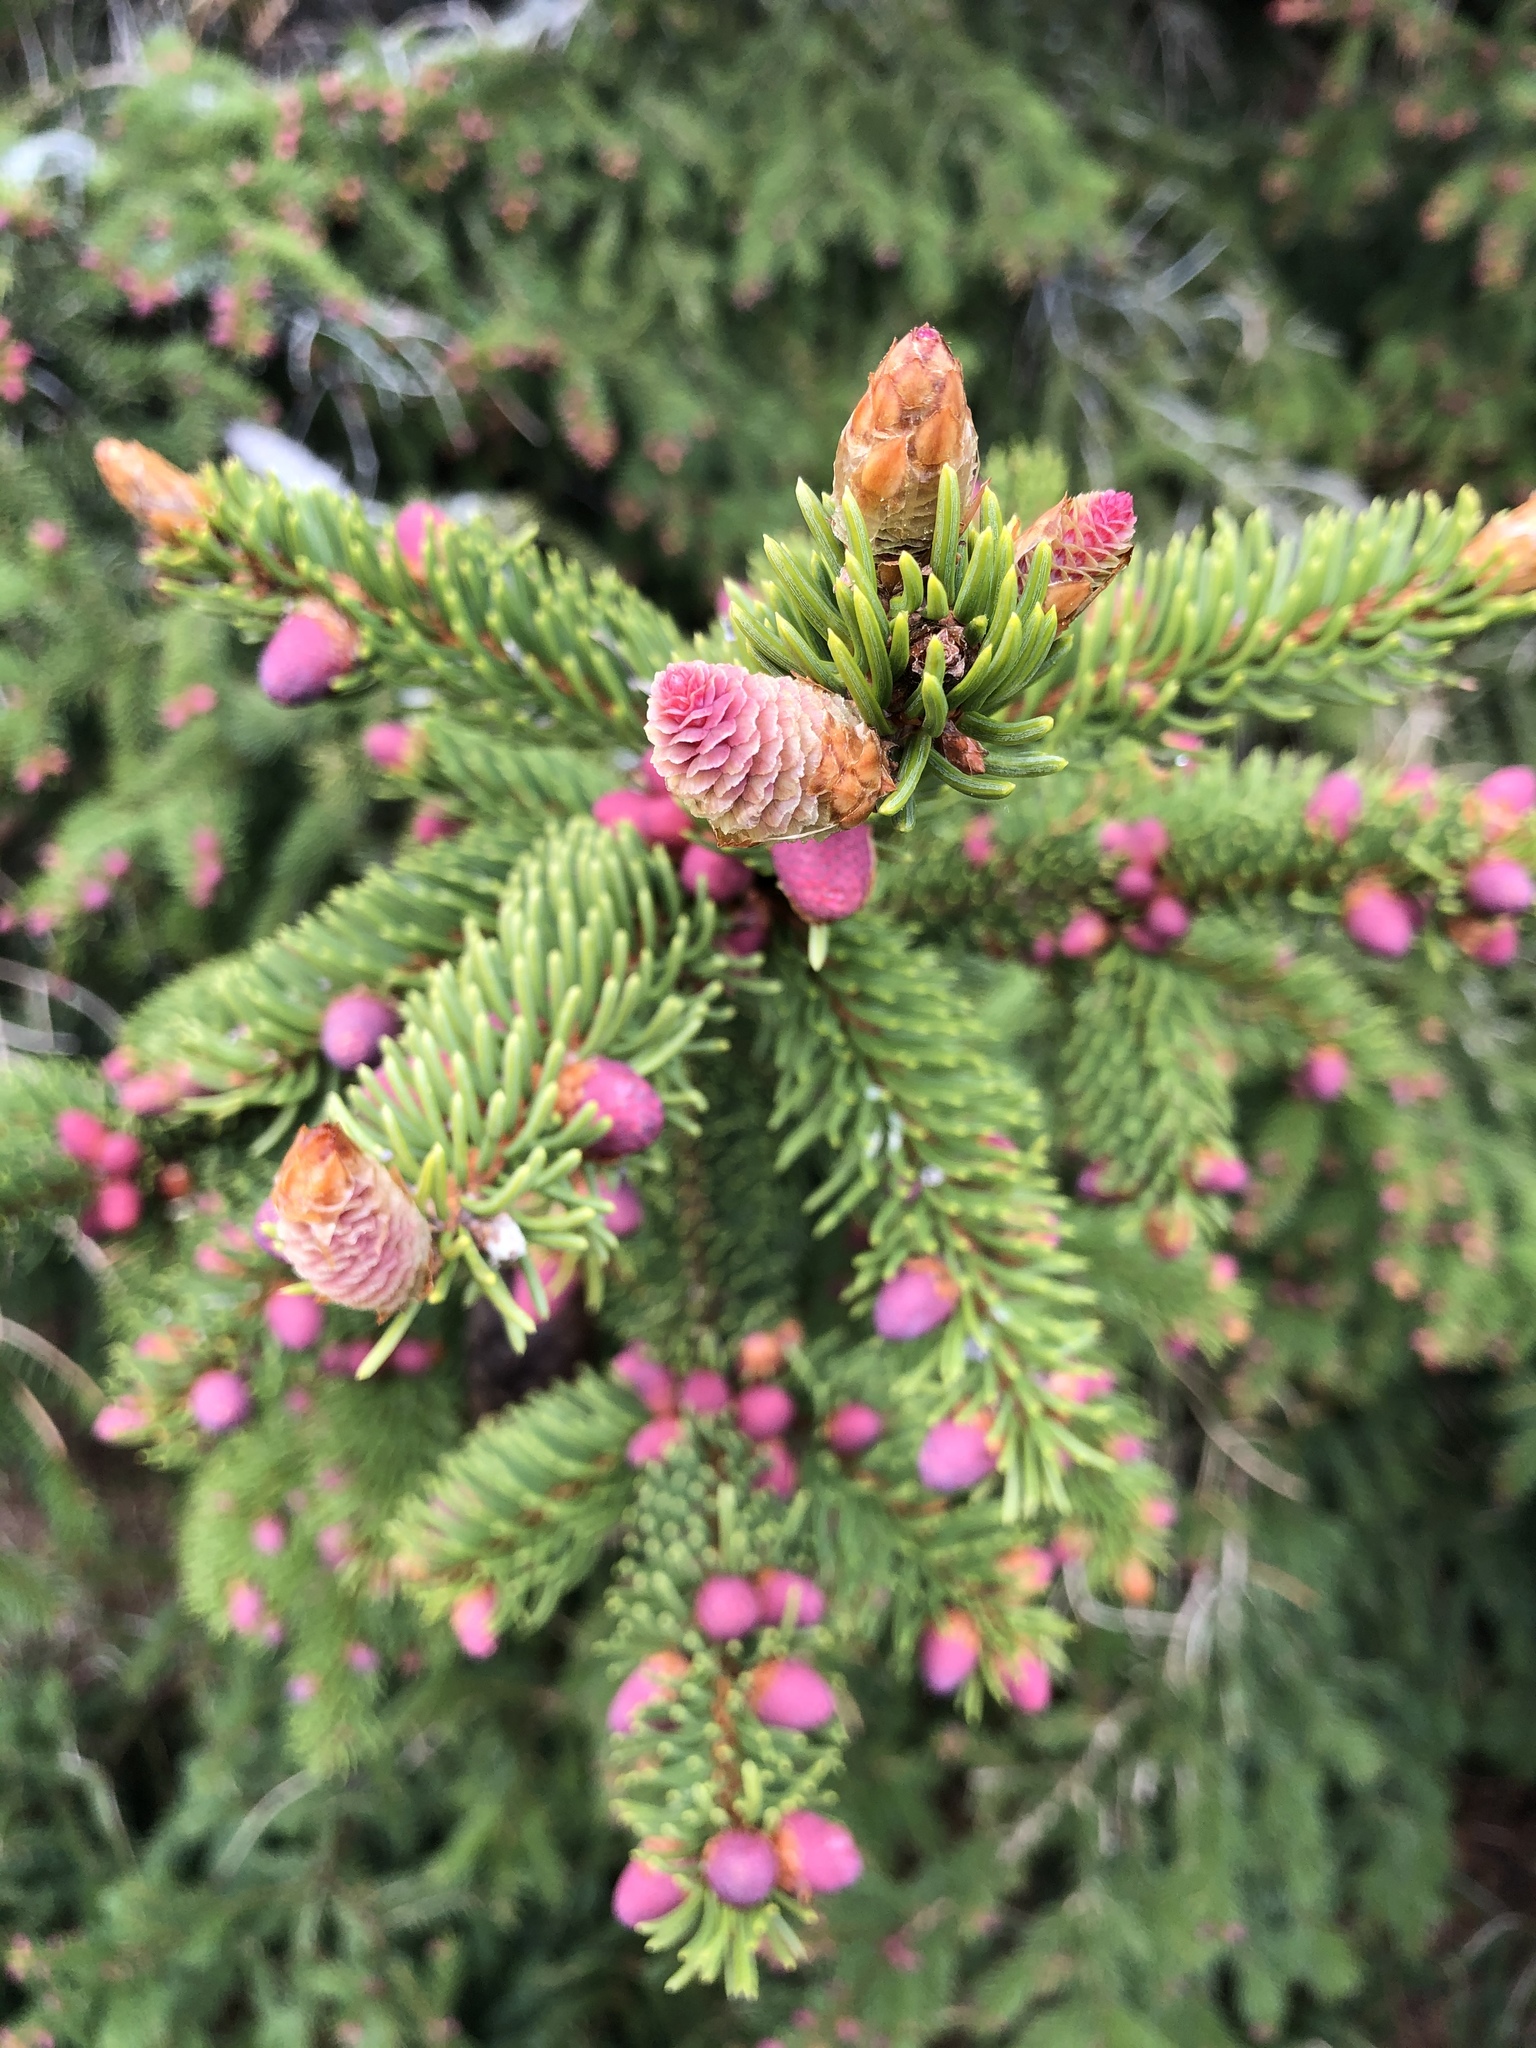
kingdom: Plantae
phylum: Tracheophyta
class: Pinopsida
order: Pinales
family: Pinaceae
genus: Picea
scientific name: Picea abies
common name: Norway spruce
